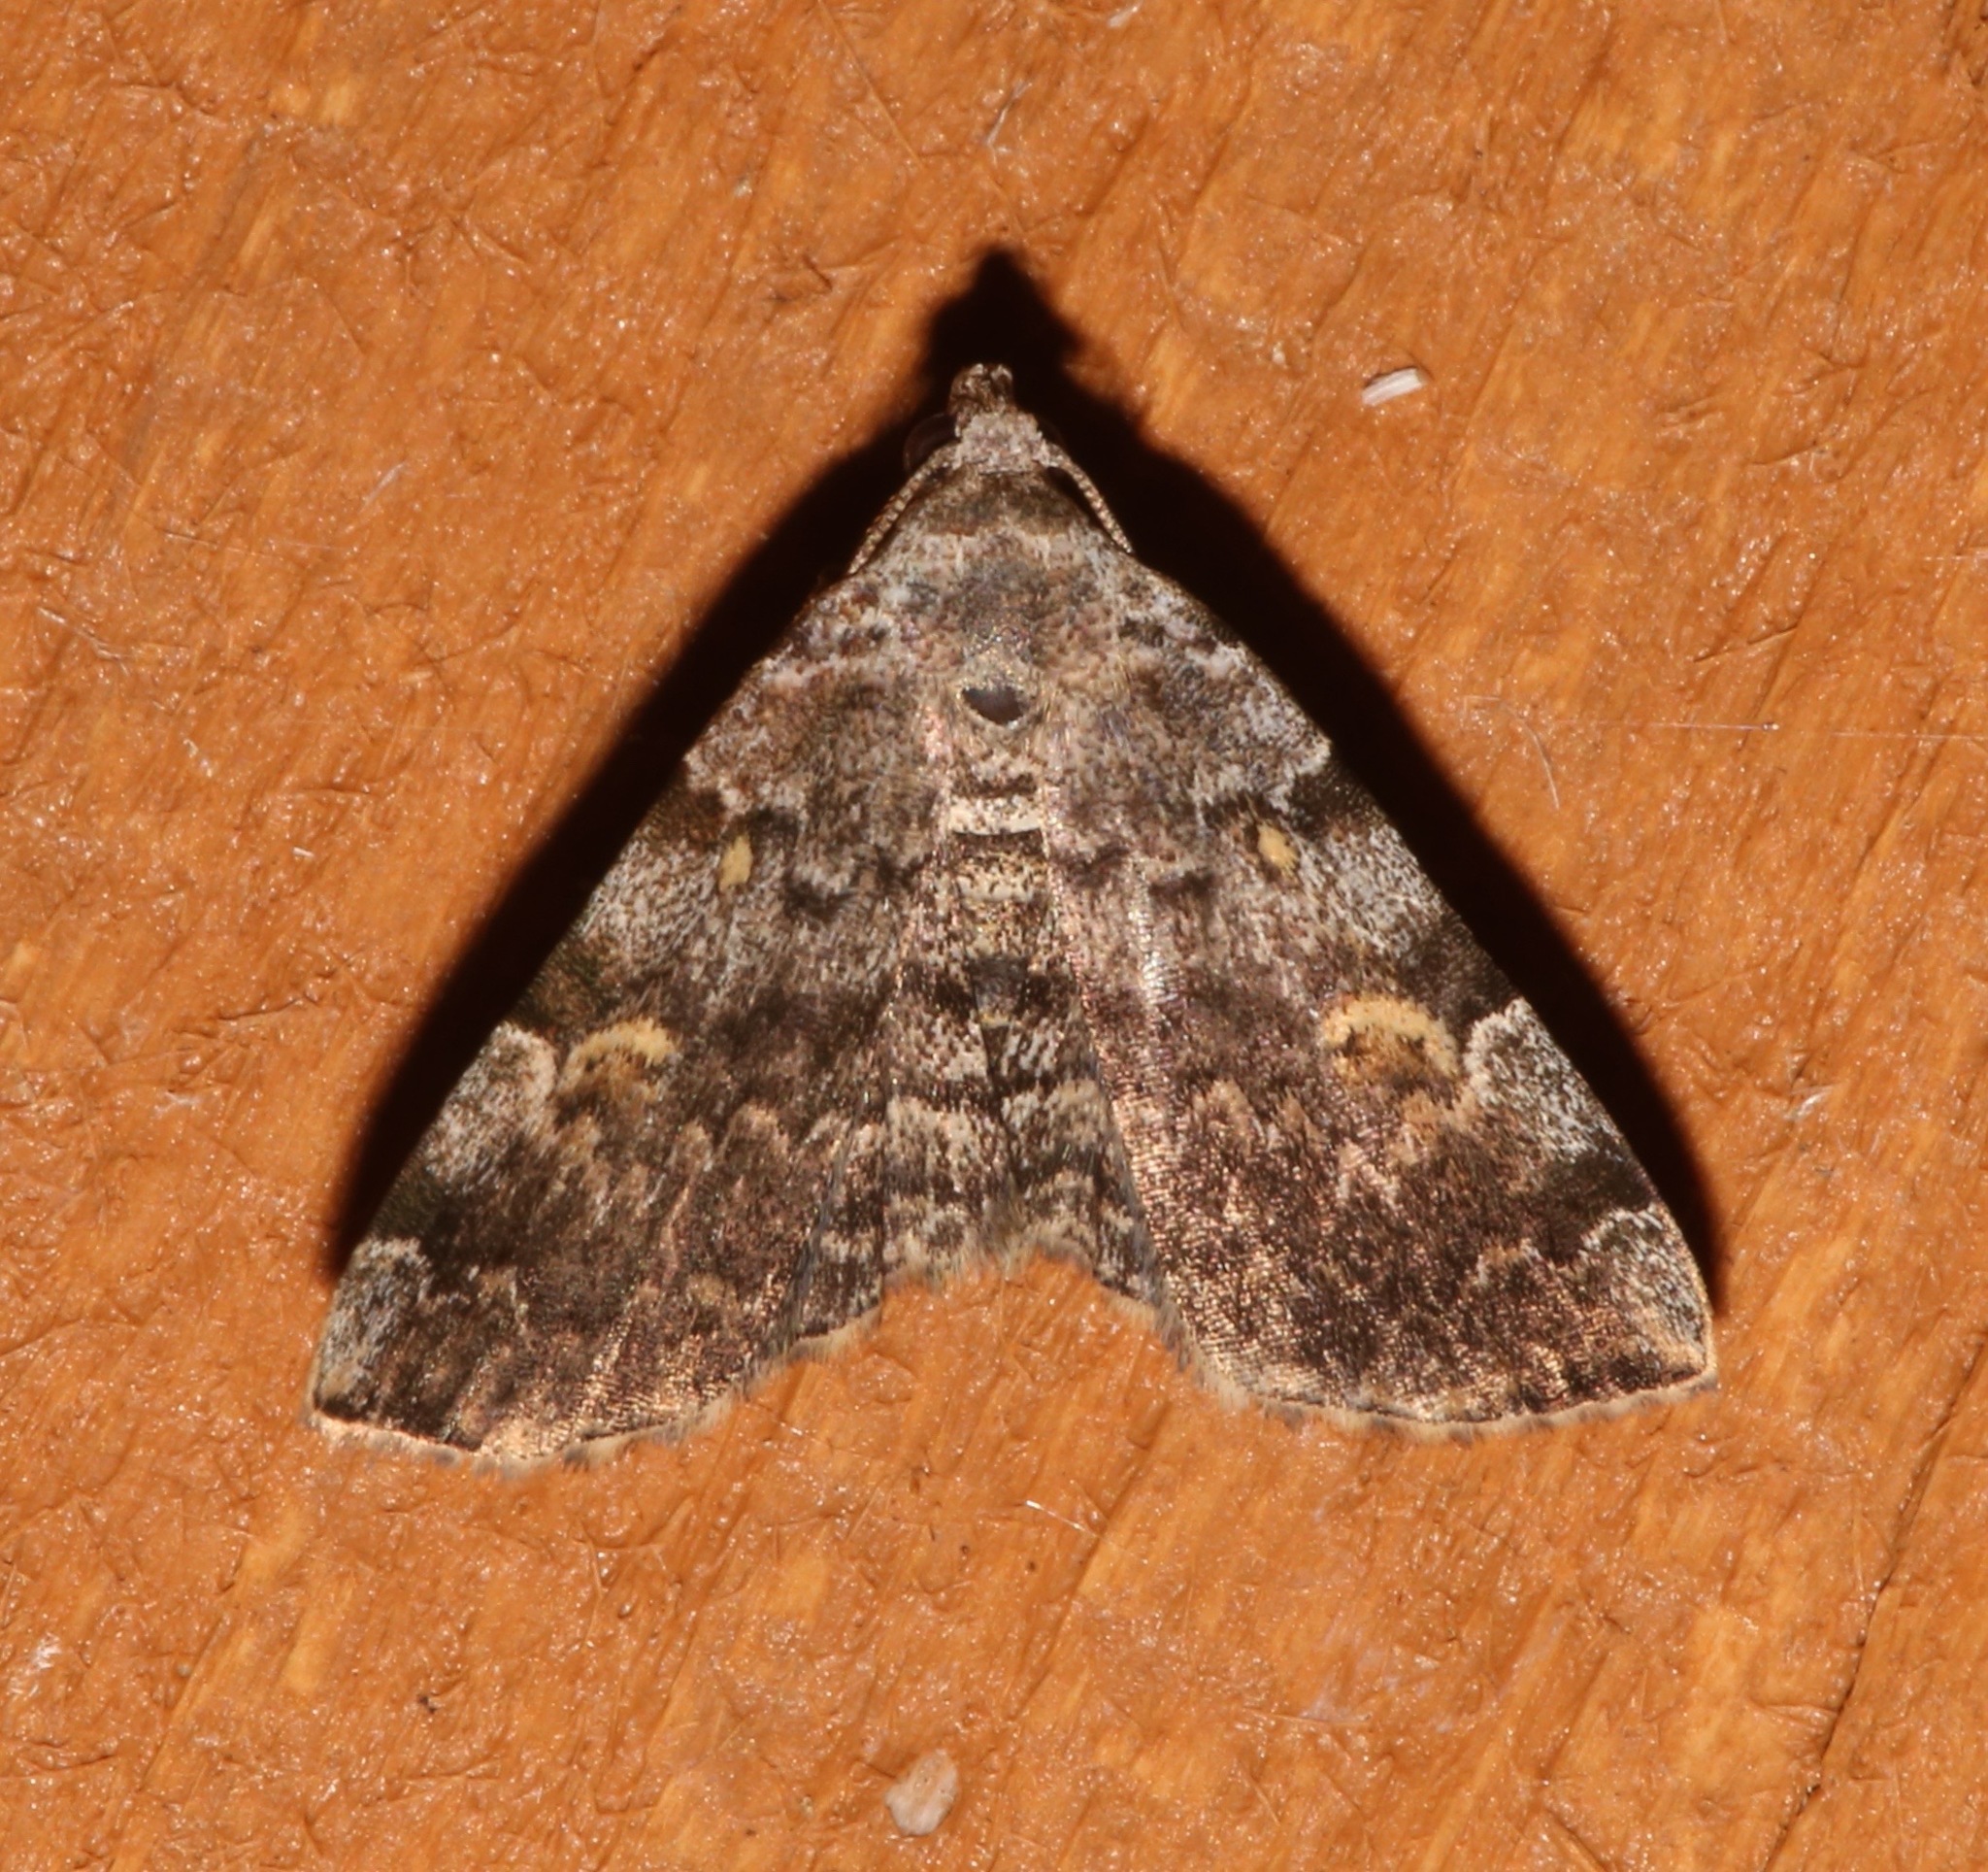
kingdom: Animalia
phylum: Arthropoda
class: Insecta
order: Lepidoptera
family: Erebidae
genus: Idia
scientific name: Idia americalis
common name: American idia moth
